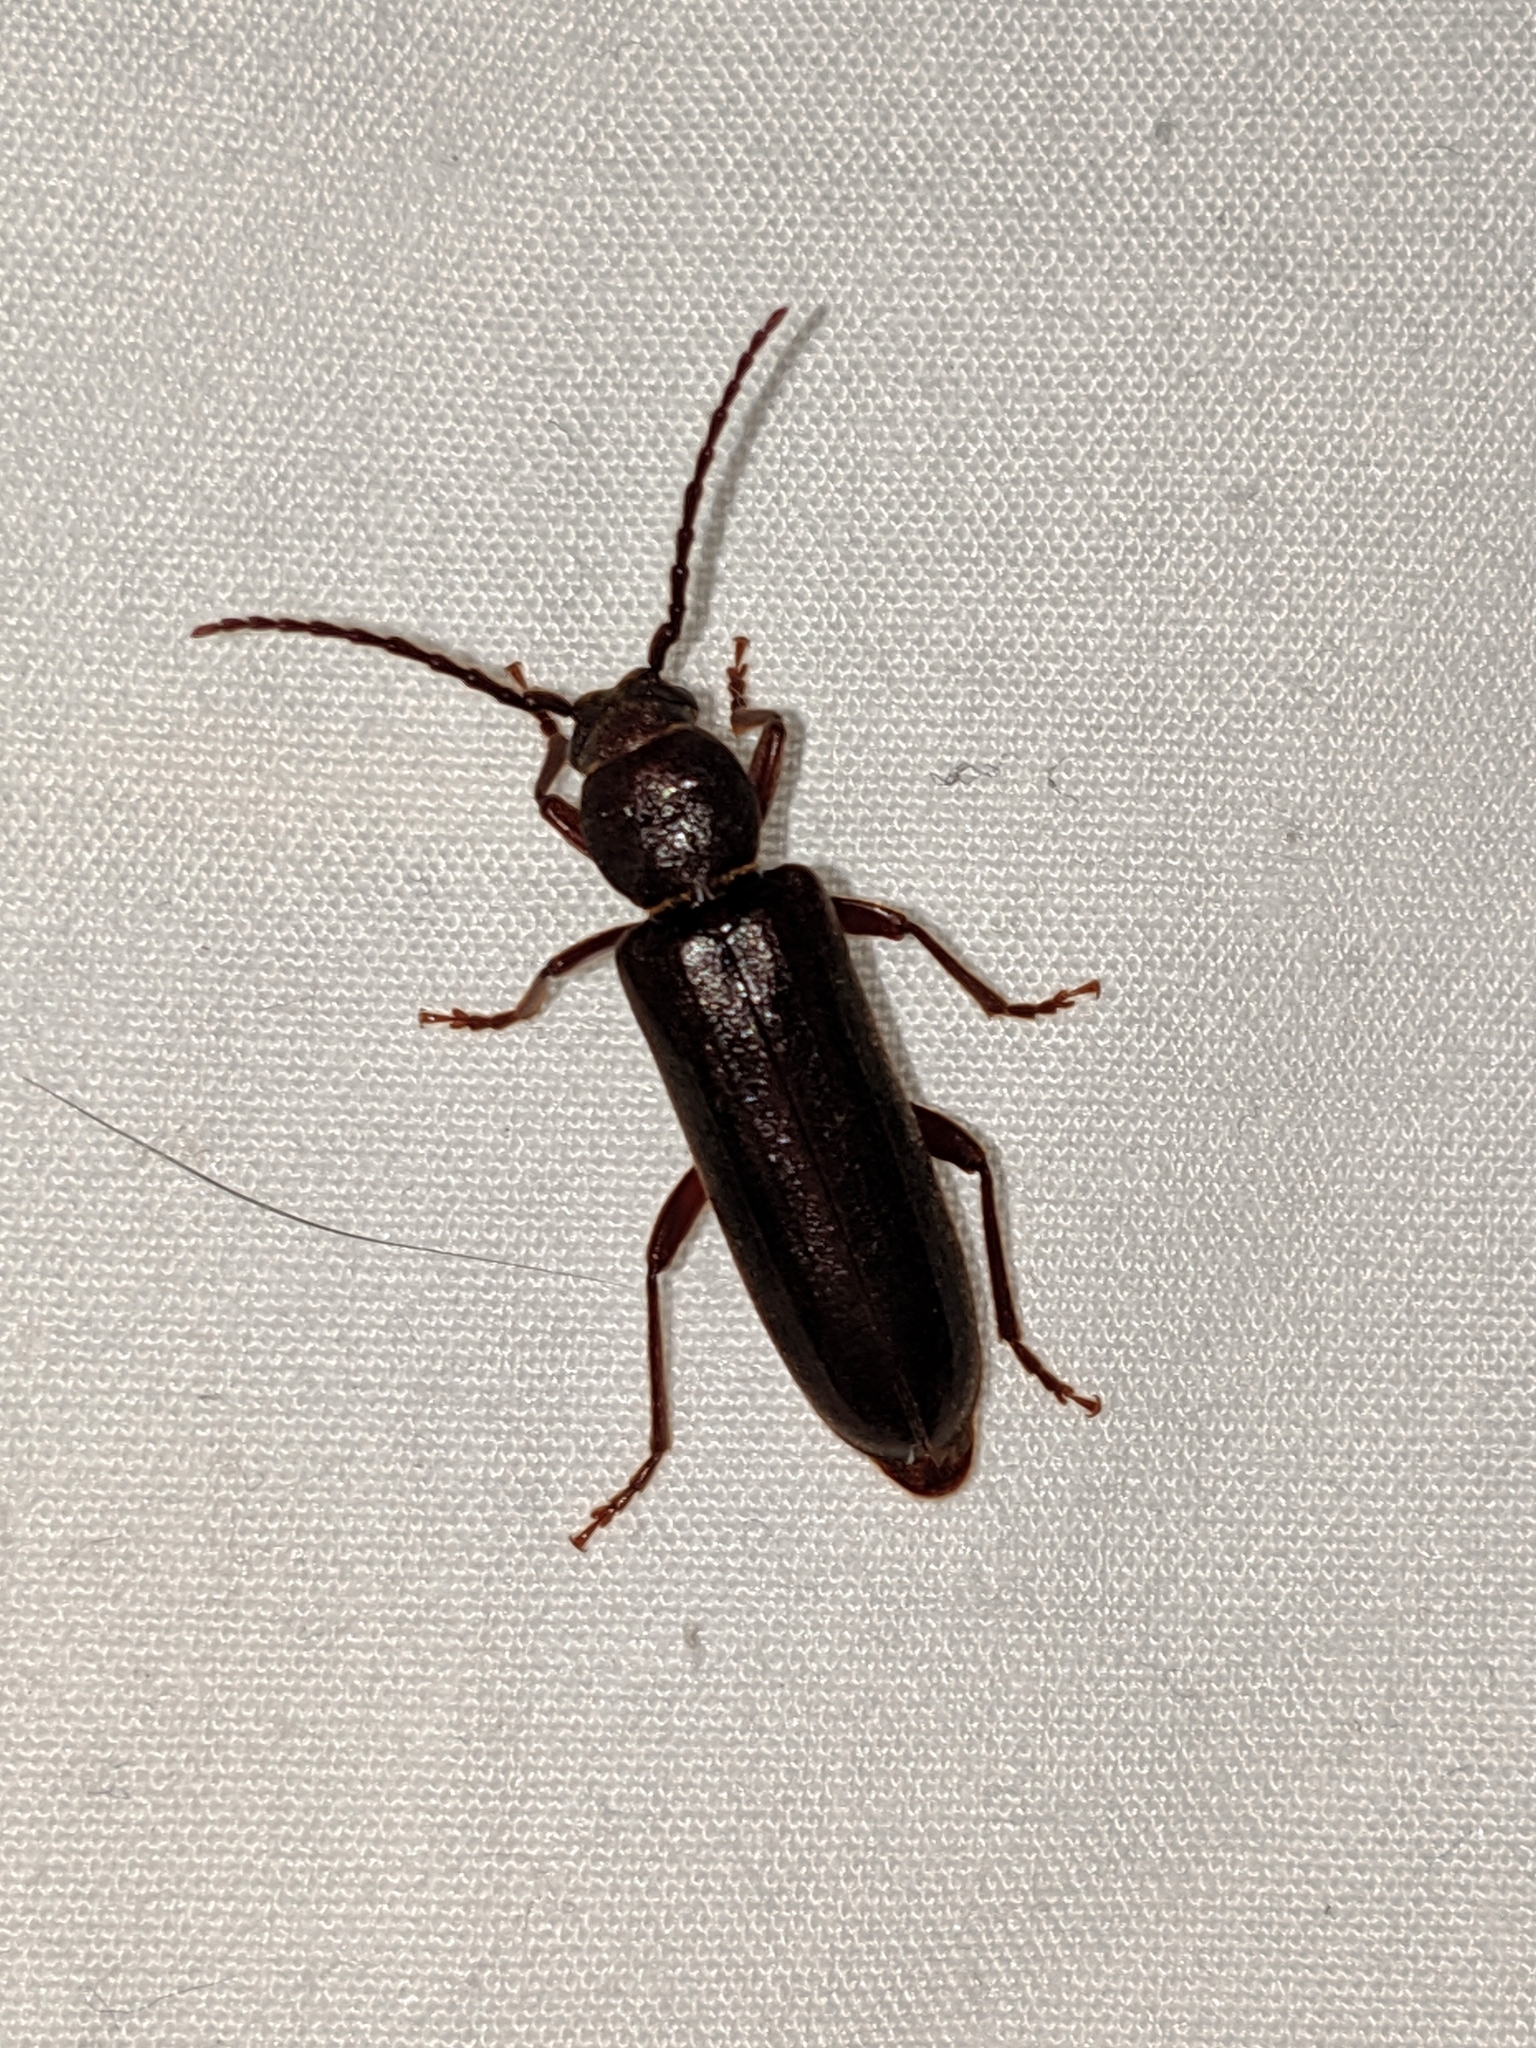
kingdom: Animalia
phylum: Arthropoda
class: Insecta
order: Coleoptera
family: Cerambycidae
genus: Megasemum
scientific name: Megasemum asperum
